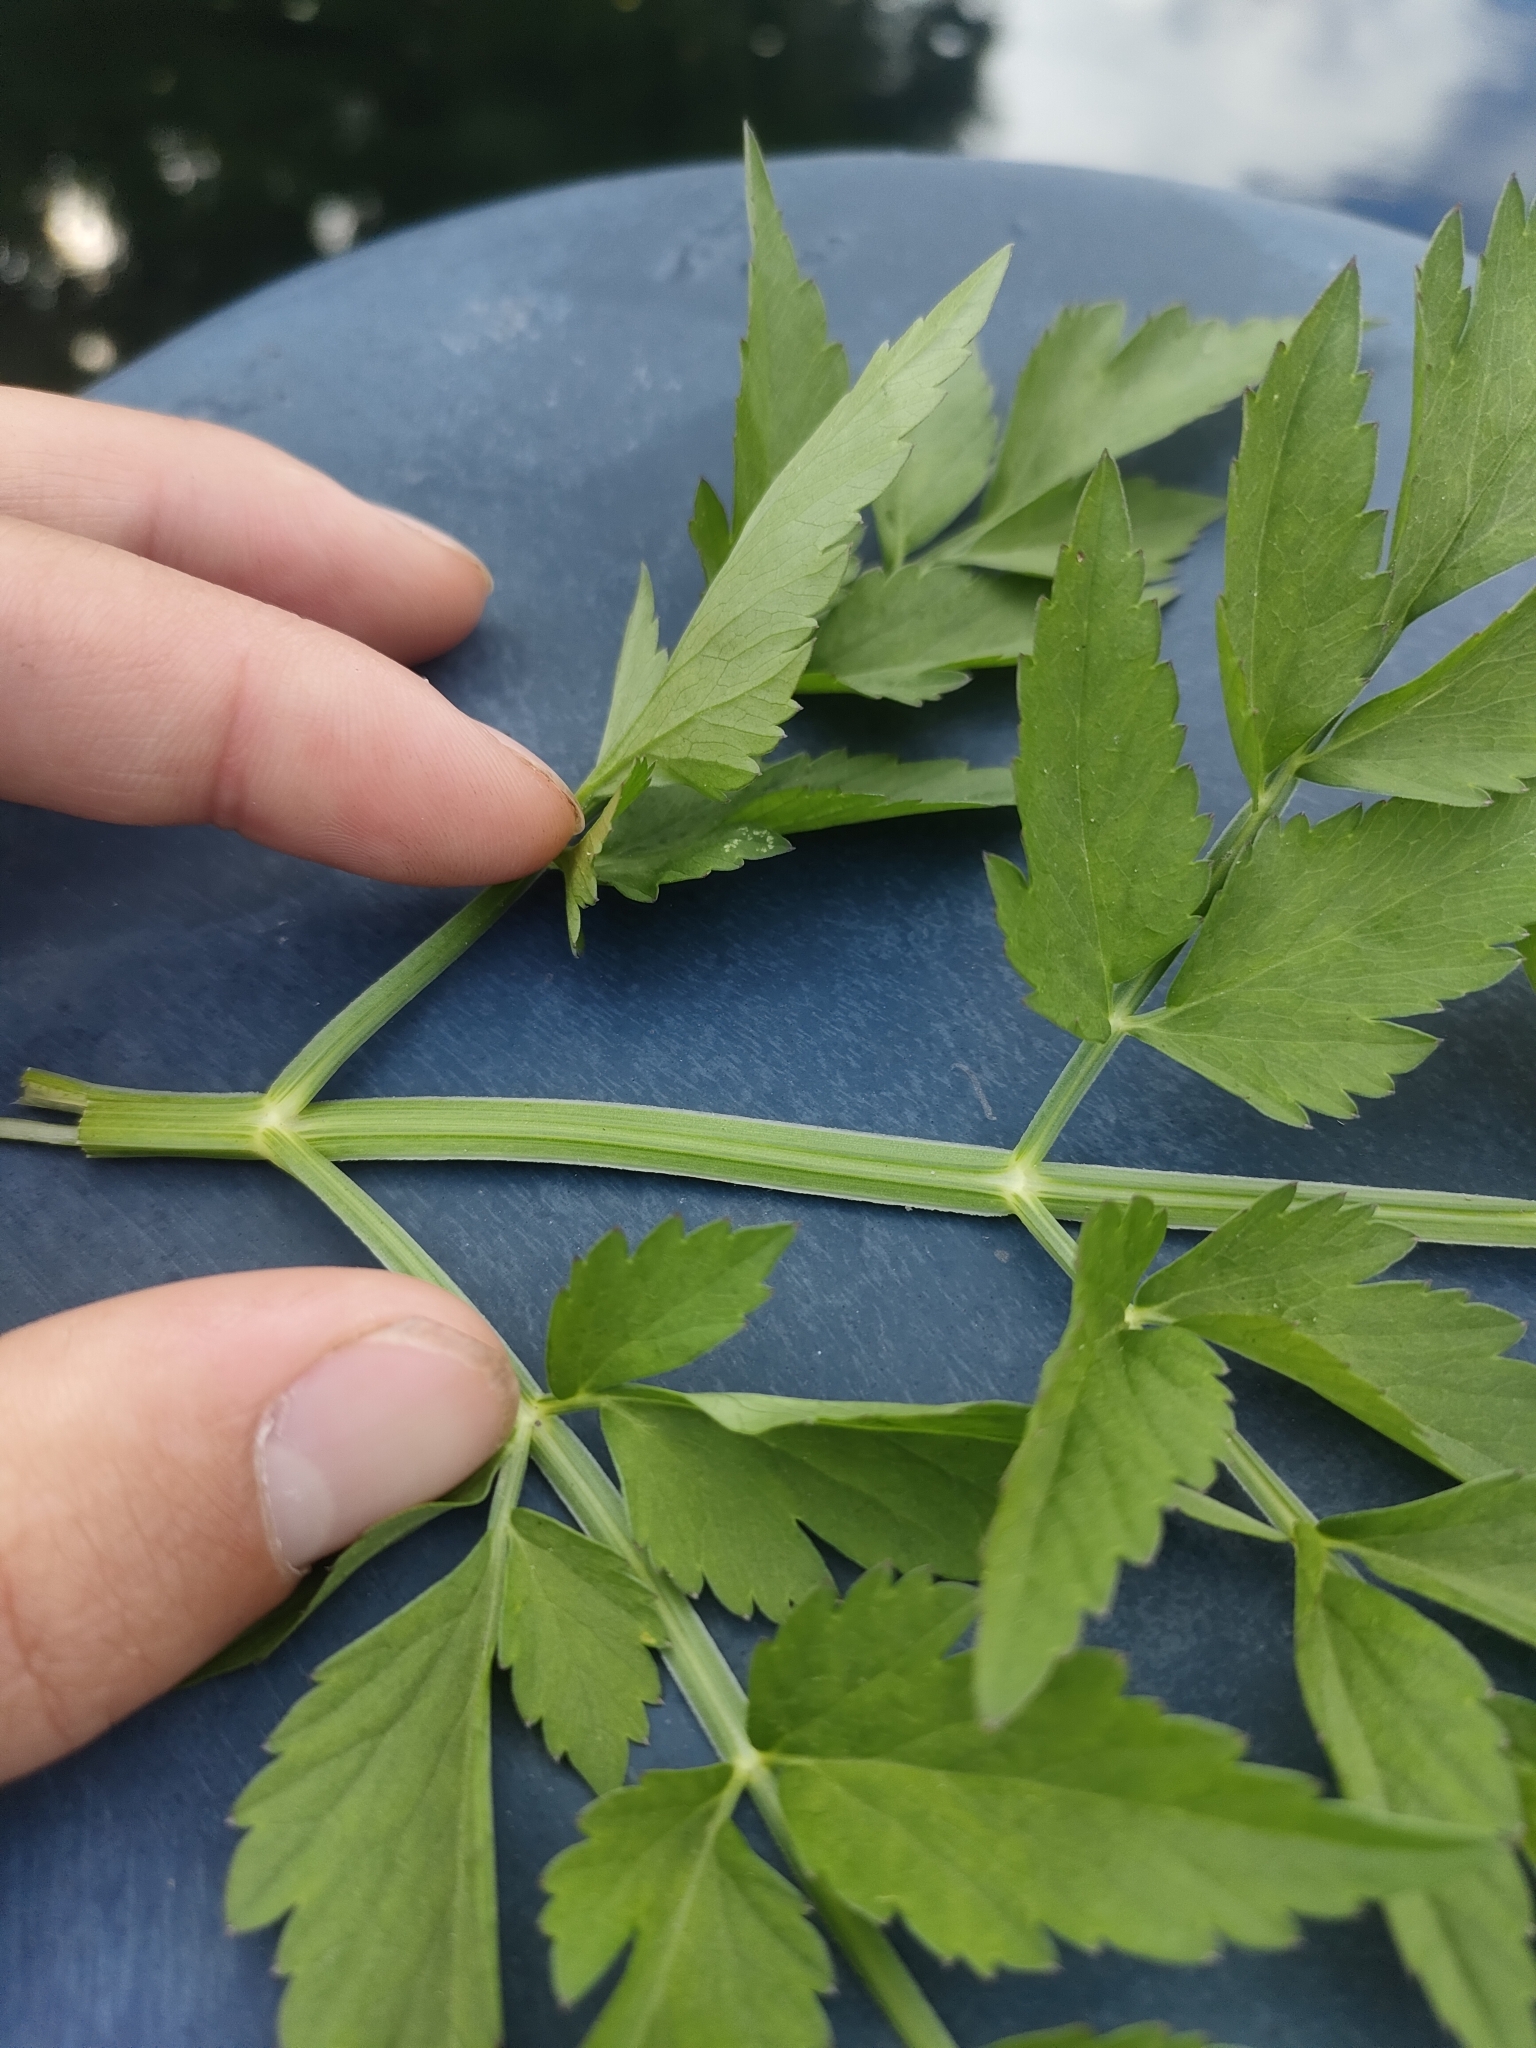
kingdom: Plantae
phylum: Tracheophyta
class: Magnoliopsida
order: Apiales
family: Apiaceae
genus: Oenanthe
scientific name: Oenanthe javanica
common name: Java water-dropwort
